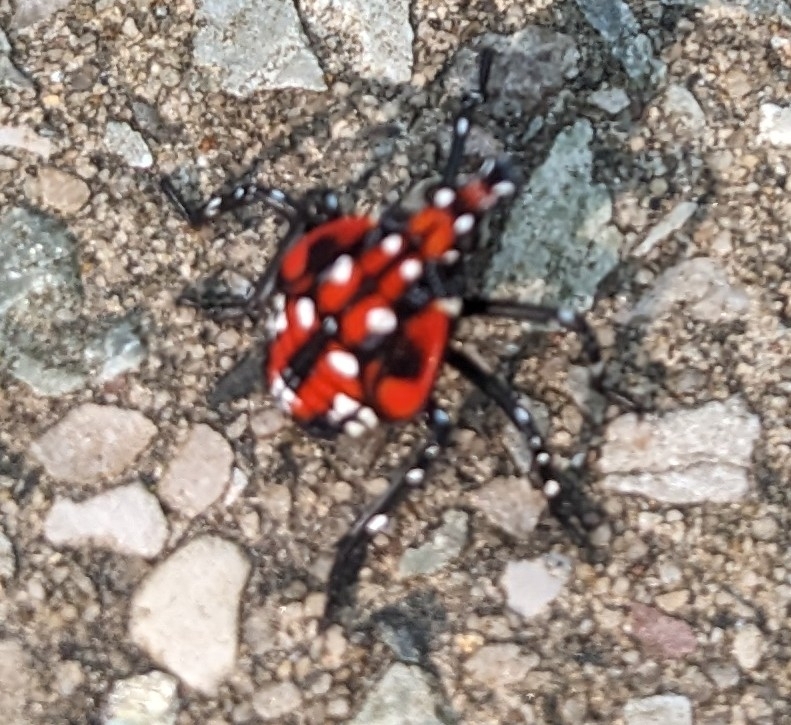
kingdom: Animalia
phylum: Arthropoda
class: Insecta
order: Hemiptera
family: Fulgoridae
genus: Lycorma
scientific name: Lycorma delicatula
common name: Spotted lanternfly
